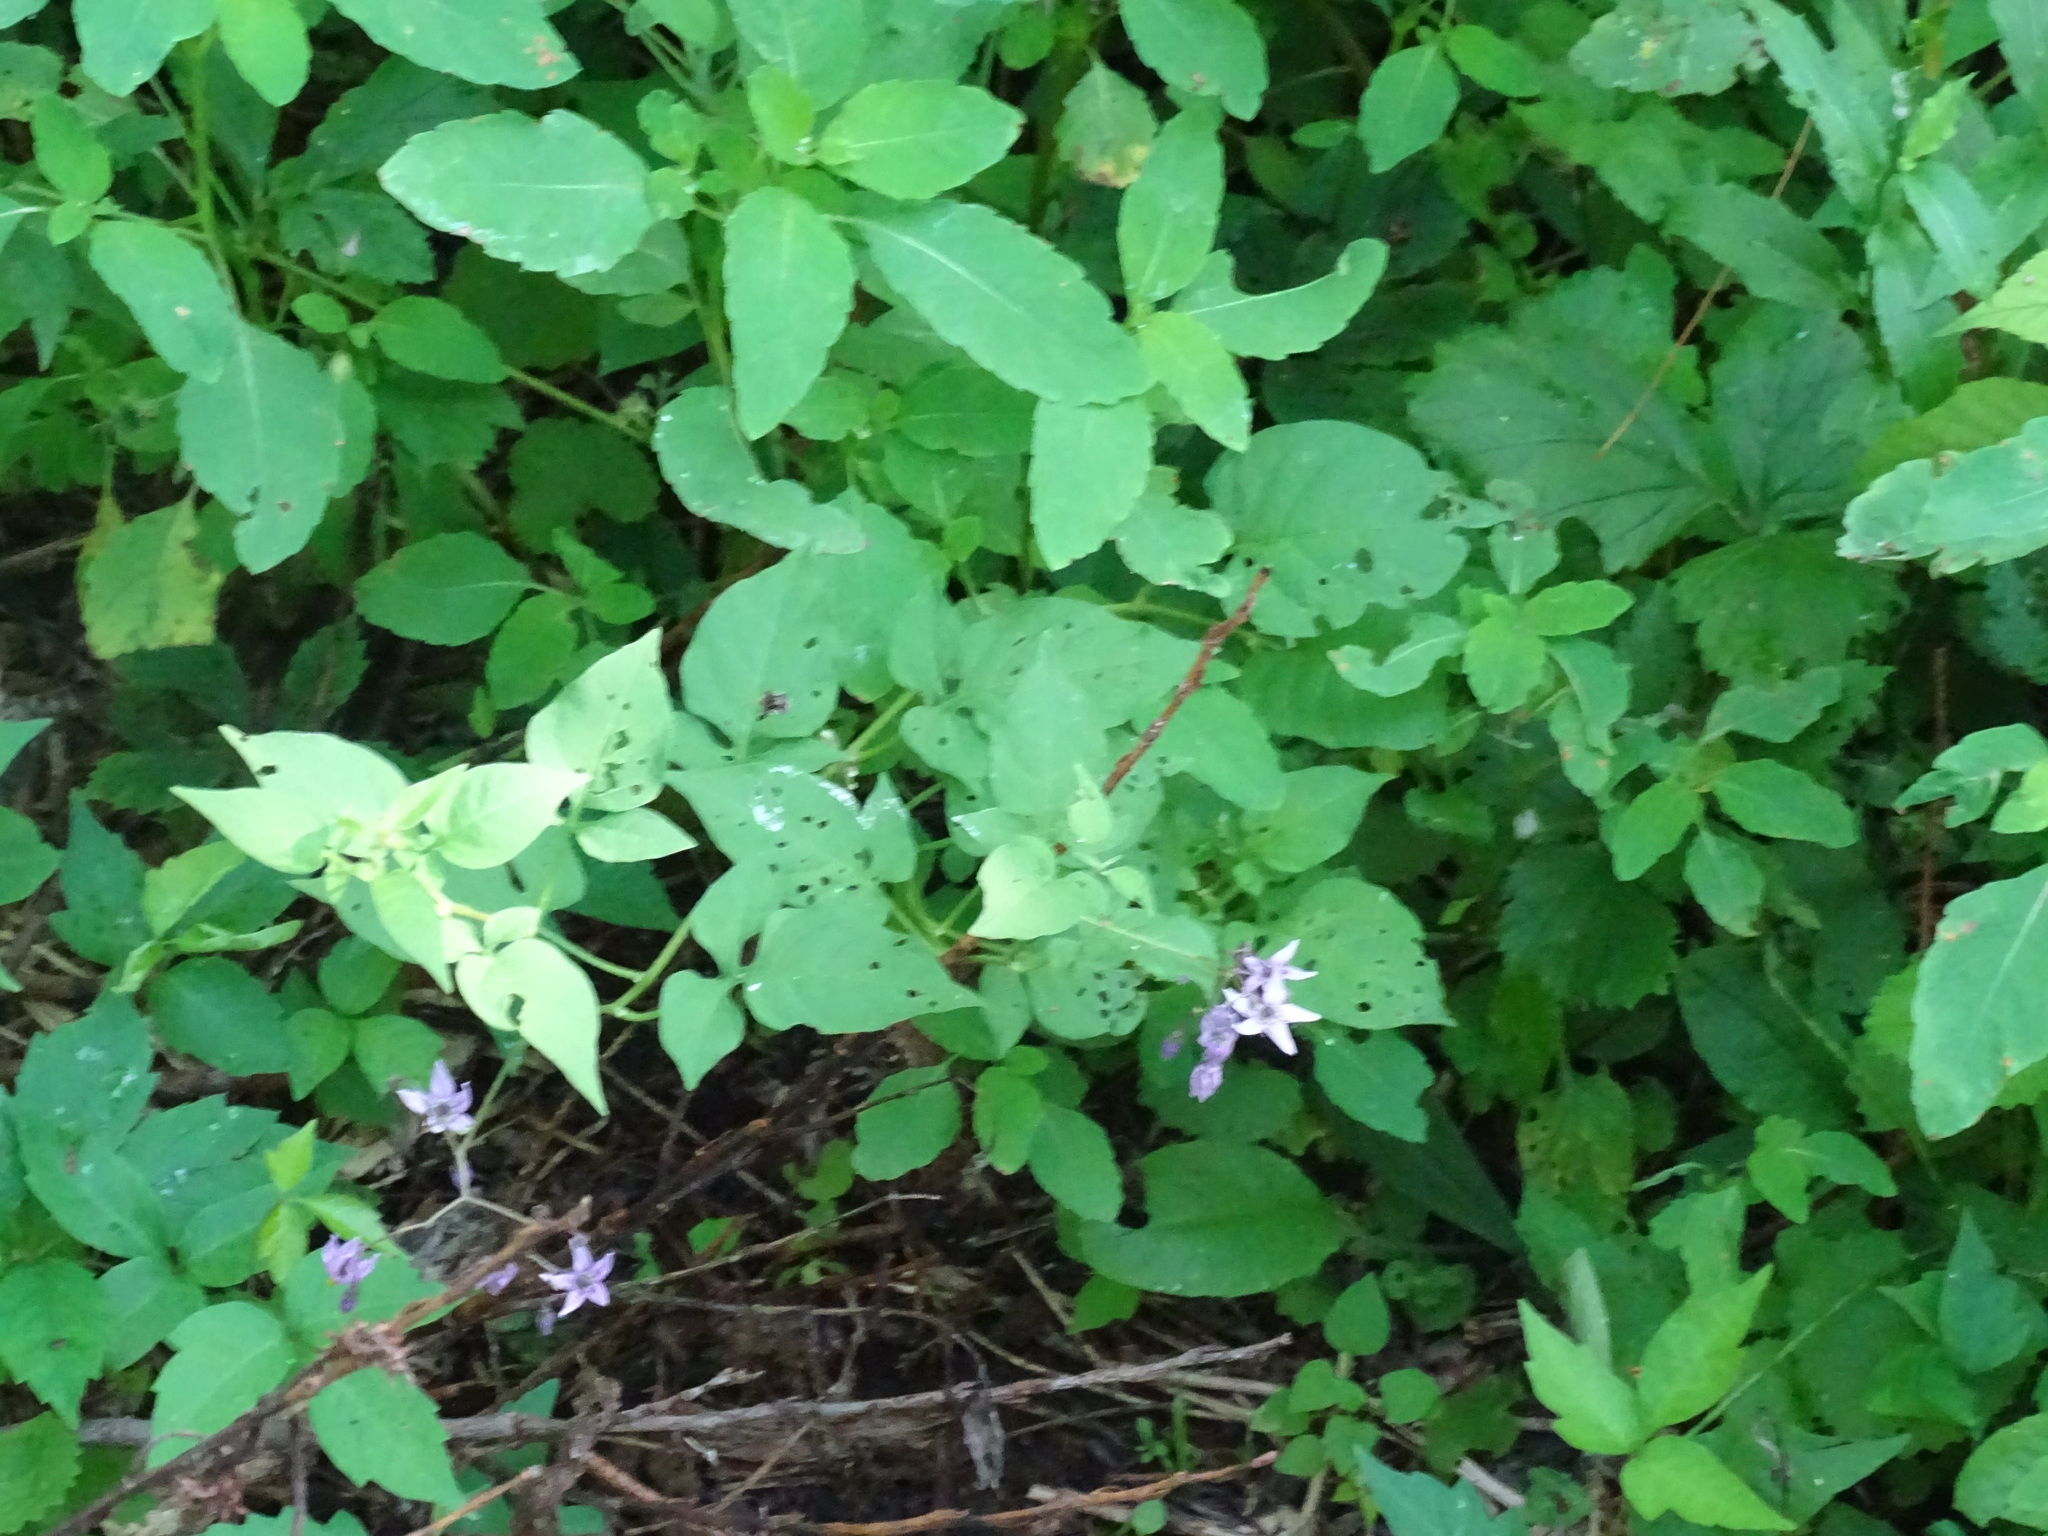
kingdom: Plantae
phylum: Tracheophyta
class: Magnoliopsida
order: Solanales
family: Solanaceae
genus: Solanum
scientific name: Solanum dulcamara
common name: Climbing nightshade
